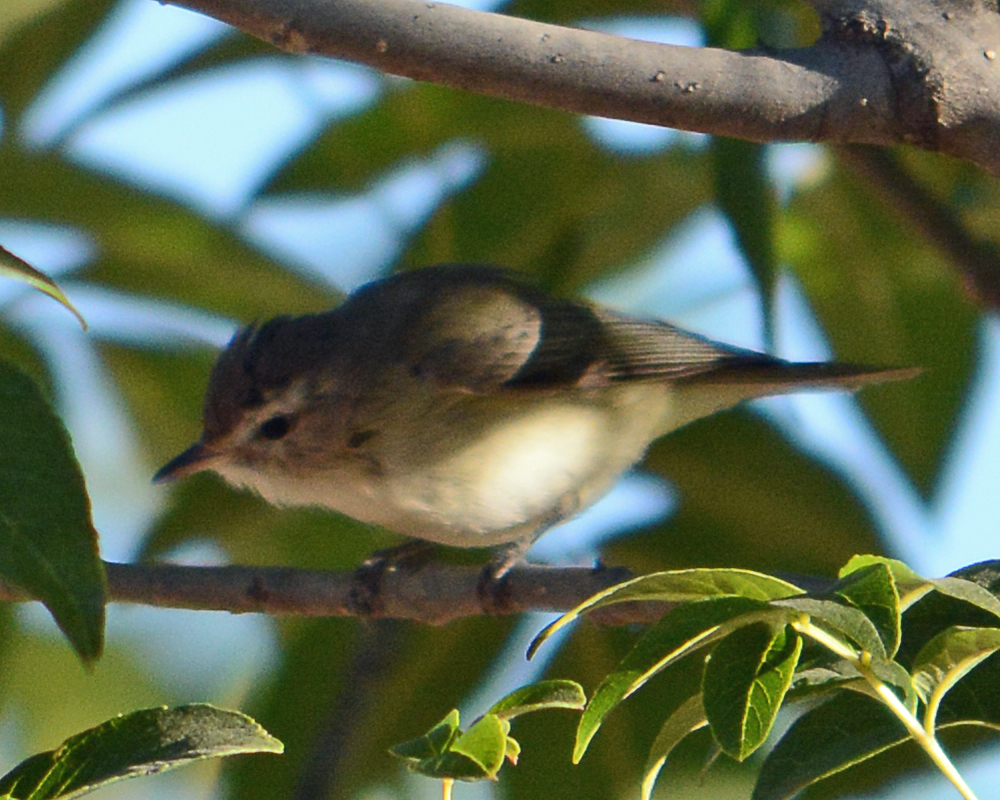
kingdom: Animalia
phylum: Chordata
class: Aves
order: Passeriformes
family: Vireonidae
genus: Vireo
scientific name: Vireo gilvus
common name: Warbling vireo
